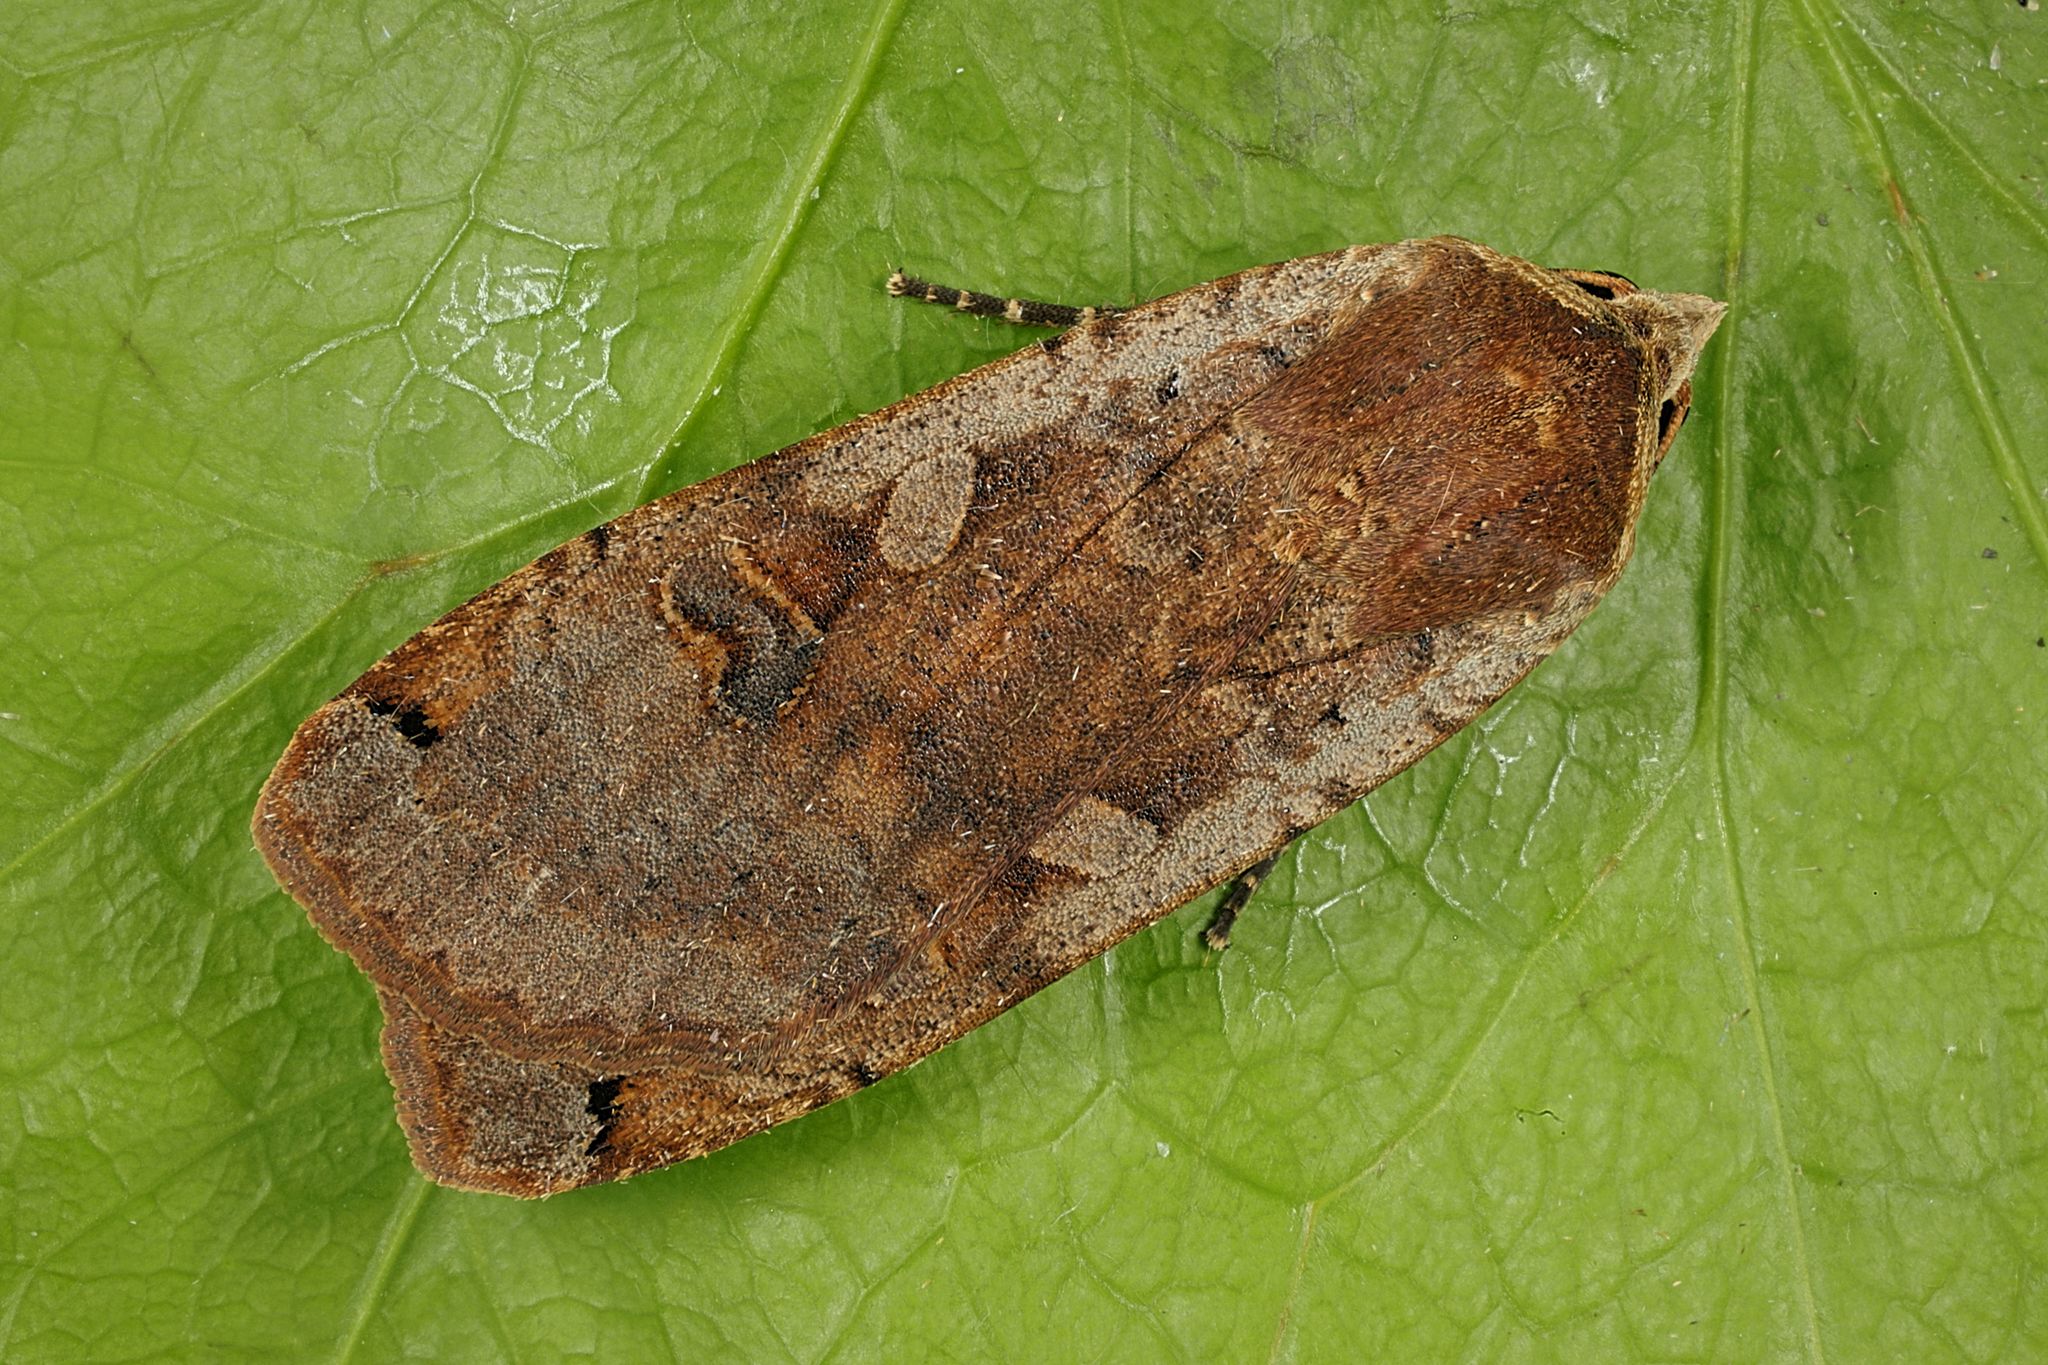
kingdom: Animalia
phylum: Arthropoda
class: Insecta
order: Lepidoptera
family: Noctuidae
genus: Noctua
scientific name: Noctua pronuba
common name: Large yellow underwing
